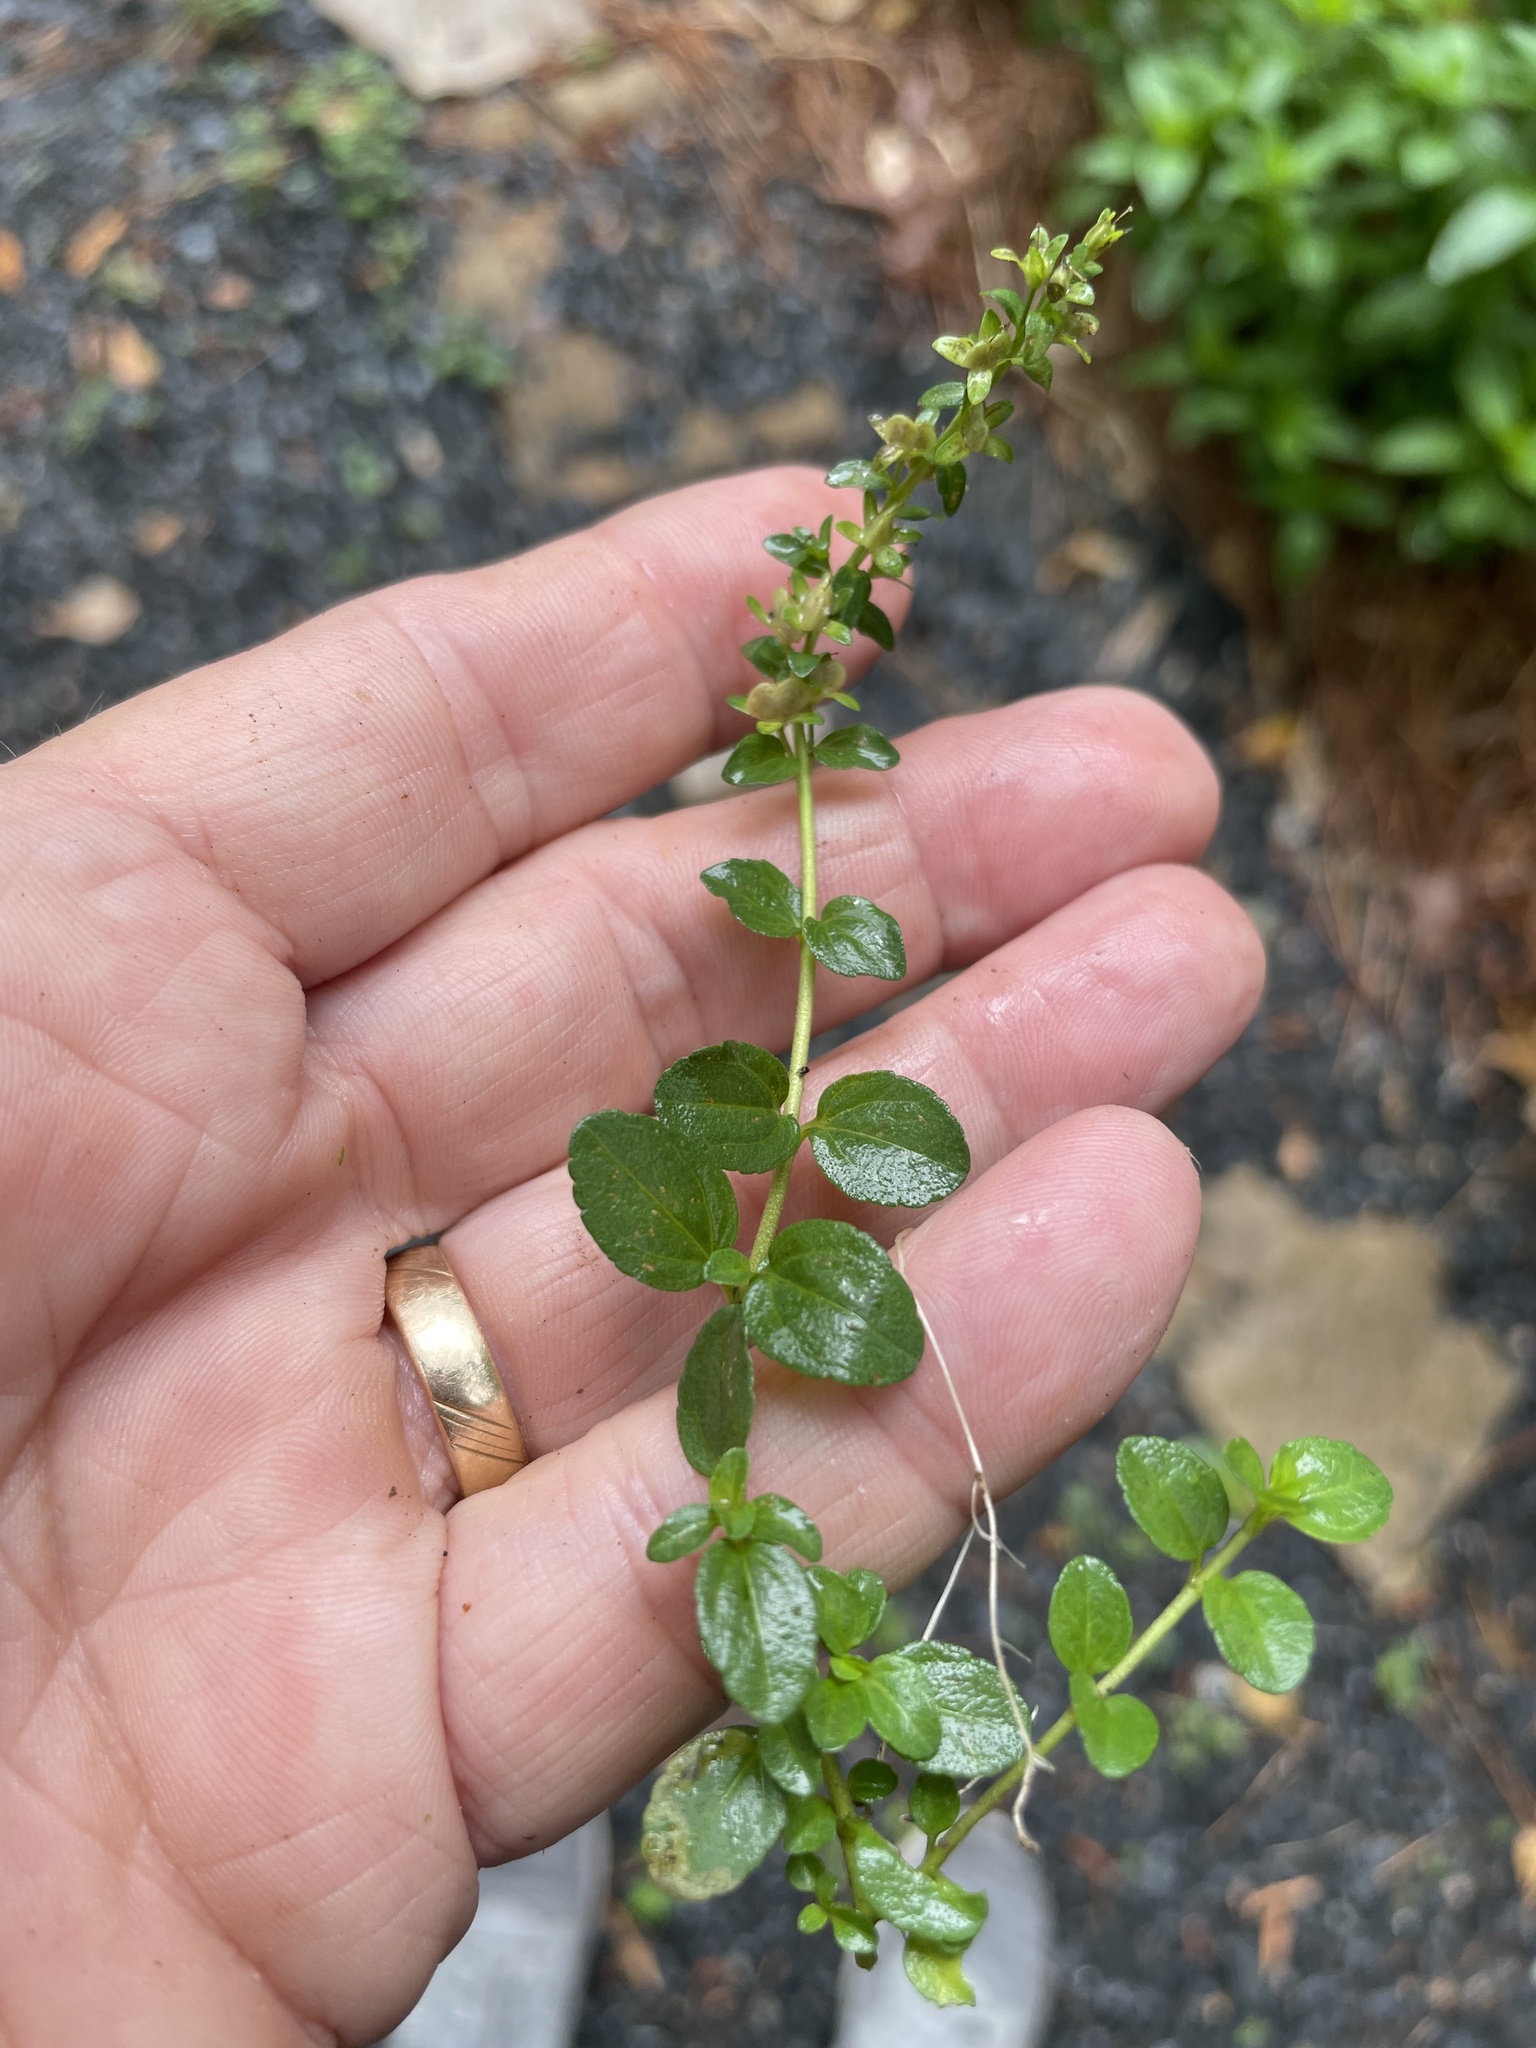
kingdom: Plantae
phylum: Tracheophyta
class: Magnoliopsida
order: Lamiales
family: Plantaginaceae
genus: Veronica
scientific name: Veronica serpyllifolia
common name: Thyme-leaved speedwell
